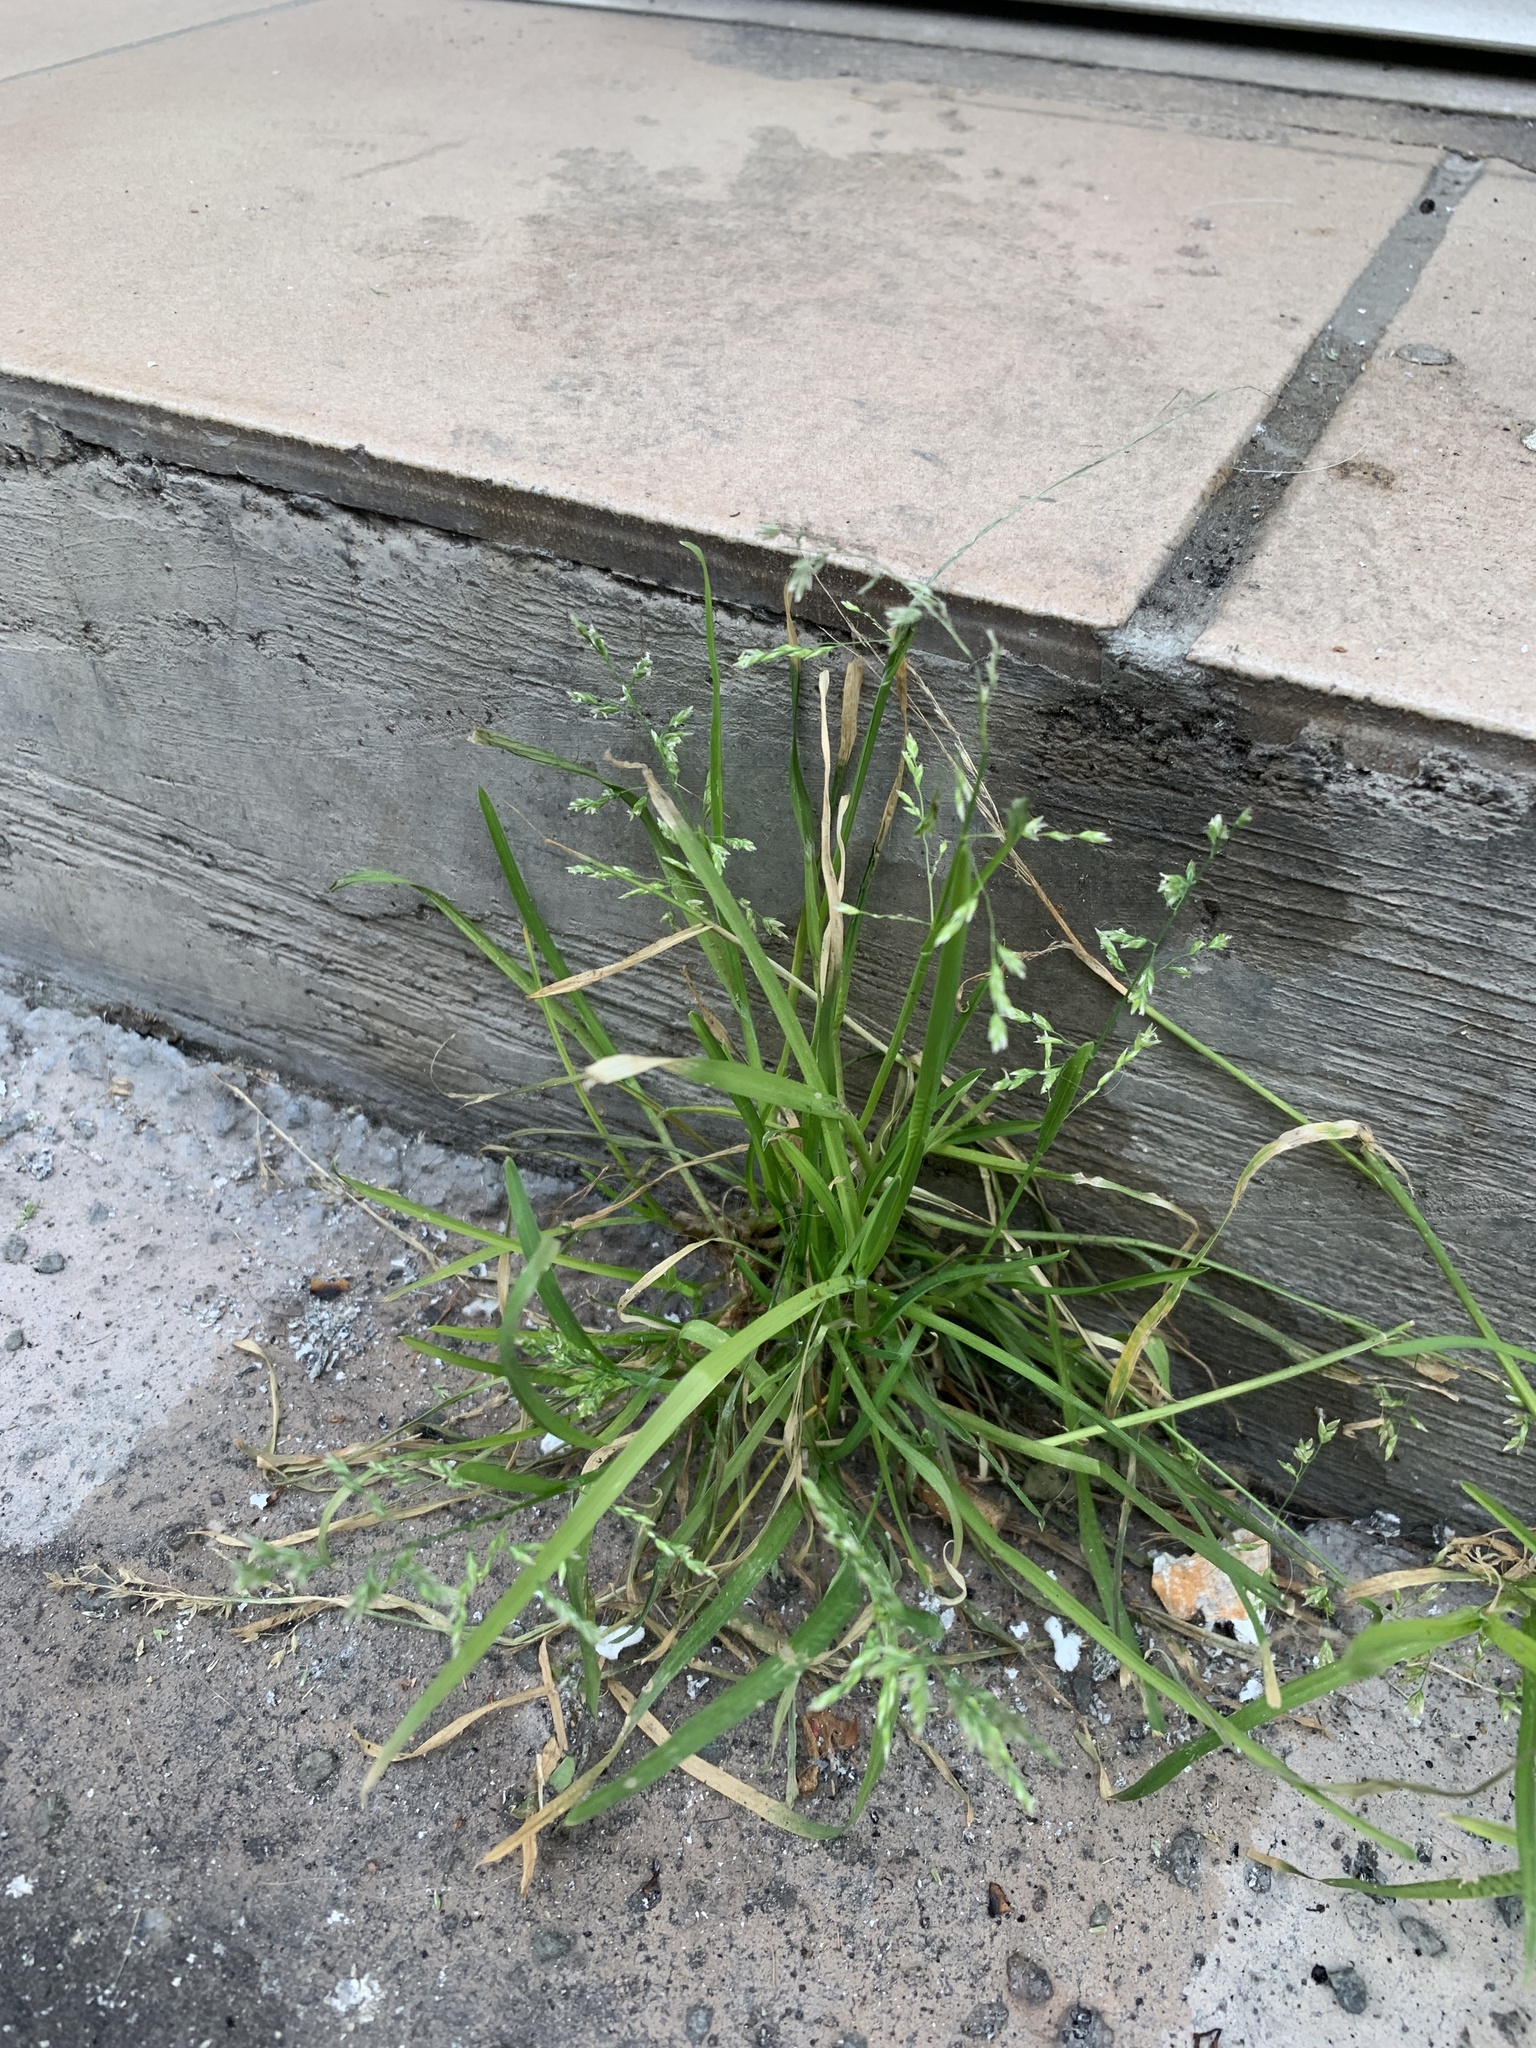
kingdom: Plantae
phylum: Tracheophyta
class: Liliopsida
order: Poales
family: Poaceae
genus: Poa
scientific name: Poa annua
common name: Annual bluegrass
